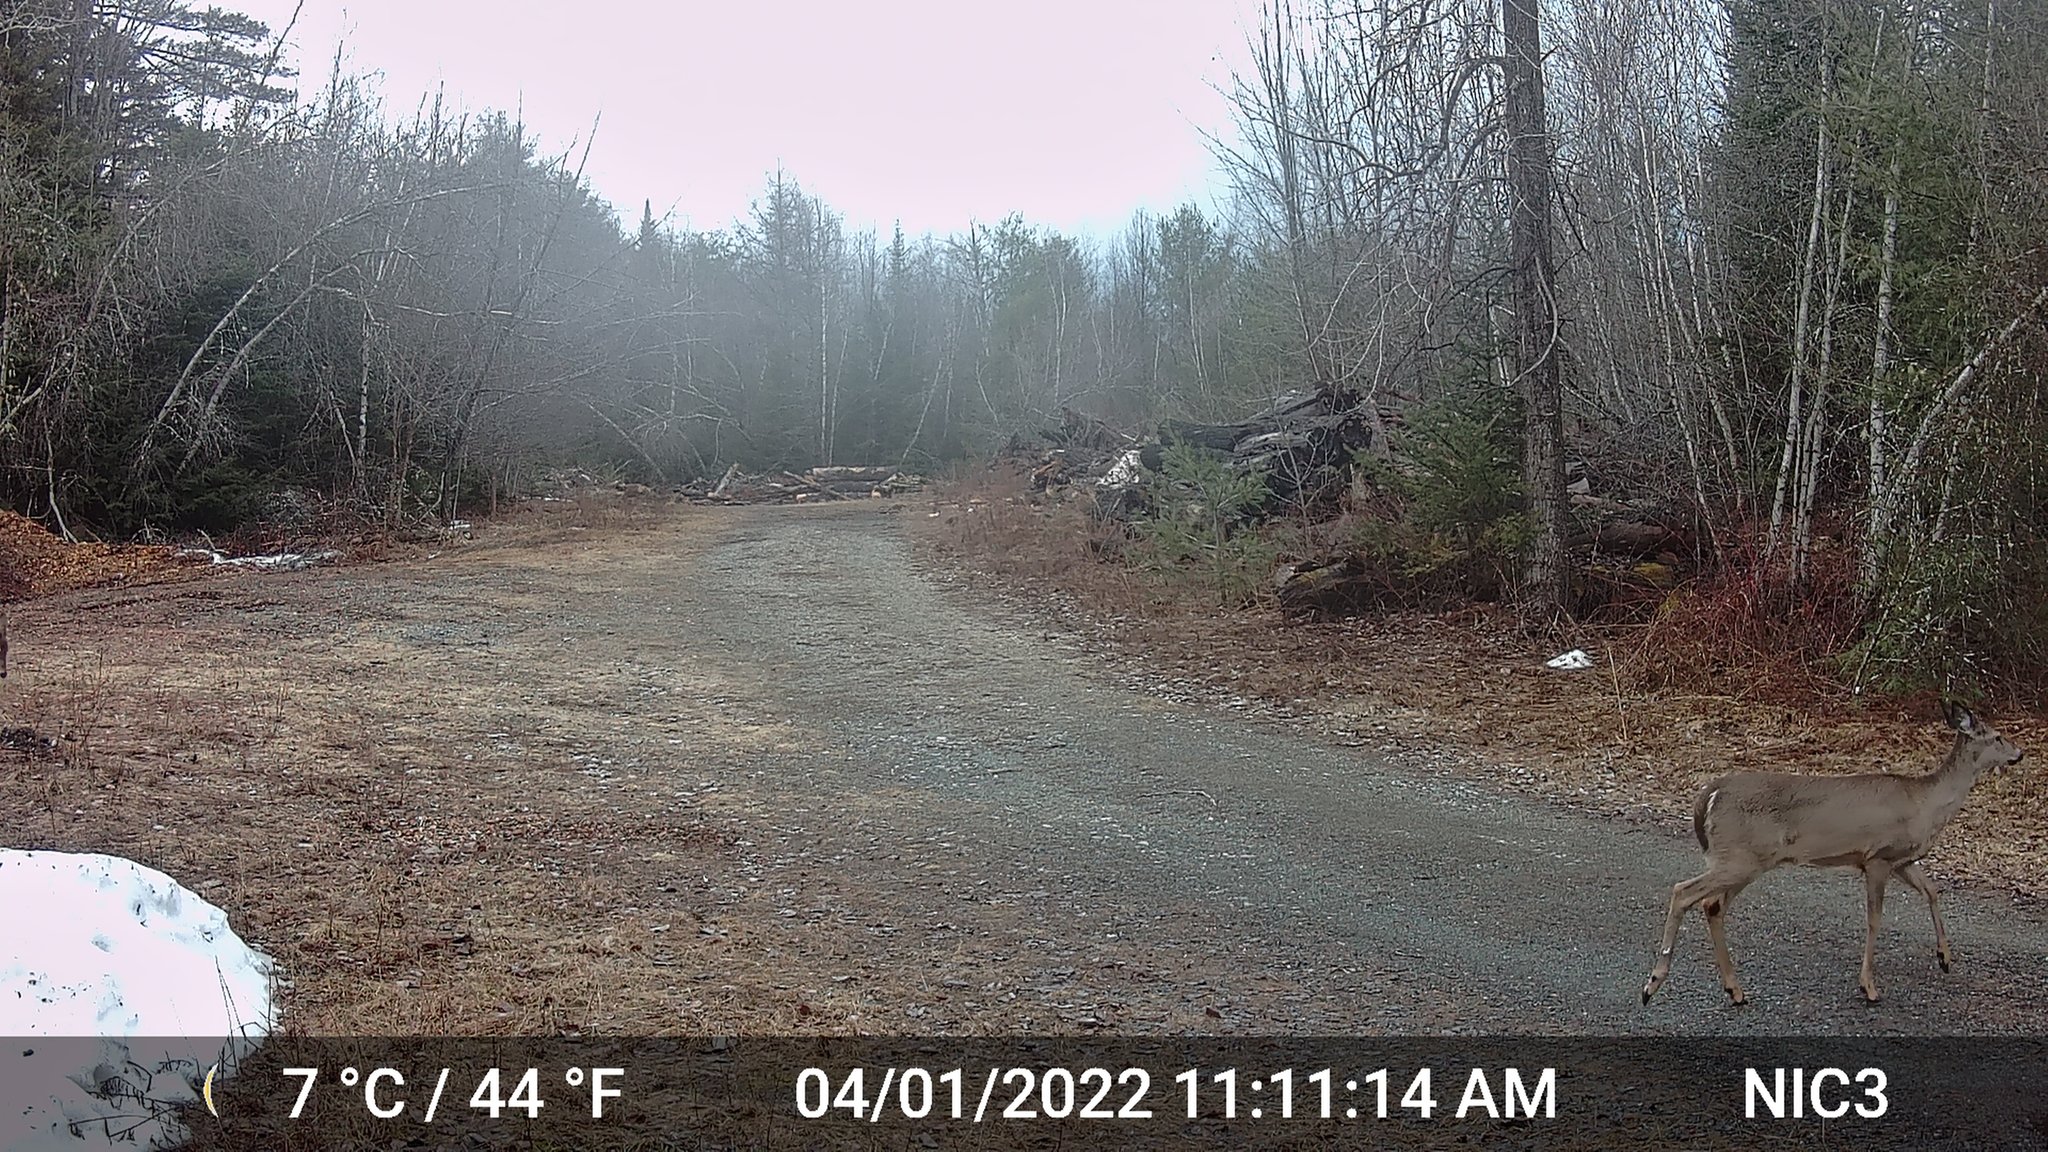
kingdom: Animalia
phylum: Chordata
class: Mammalia
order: Artiodactyla
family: Cervidae
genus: Odocoileus
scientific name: Odocoileus virginianus
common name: White-tailed deer
